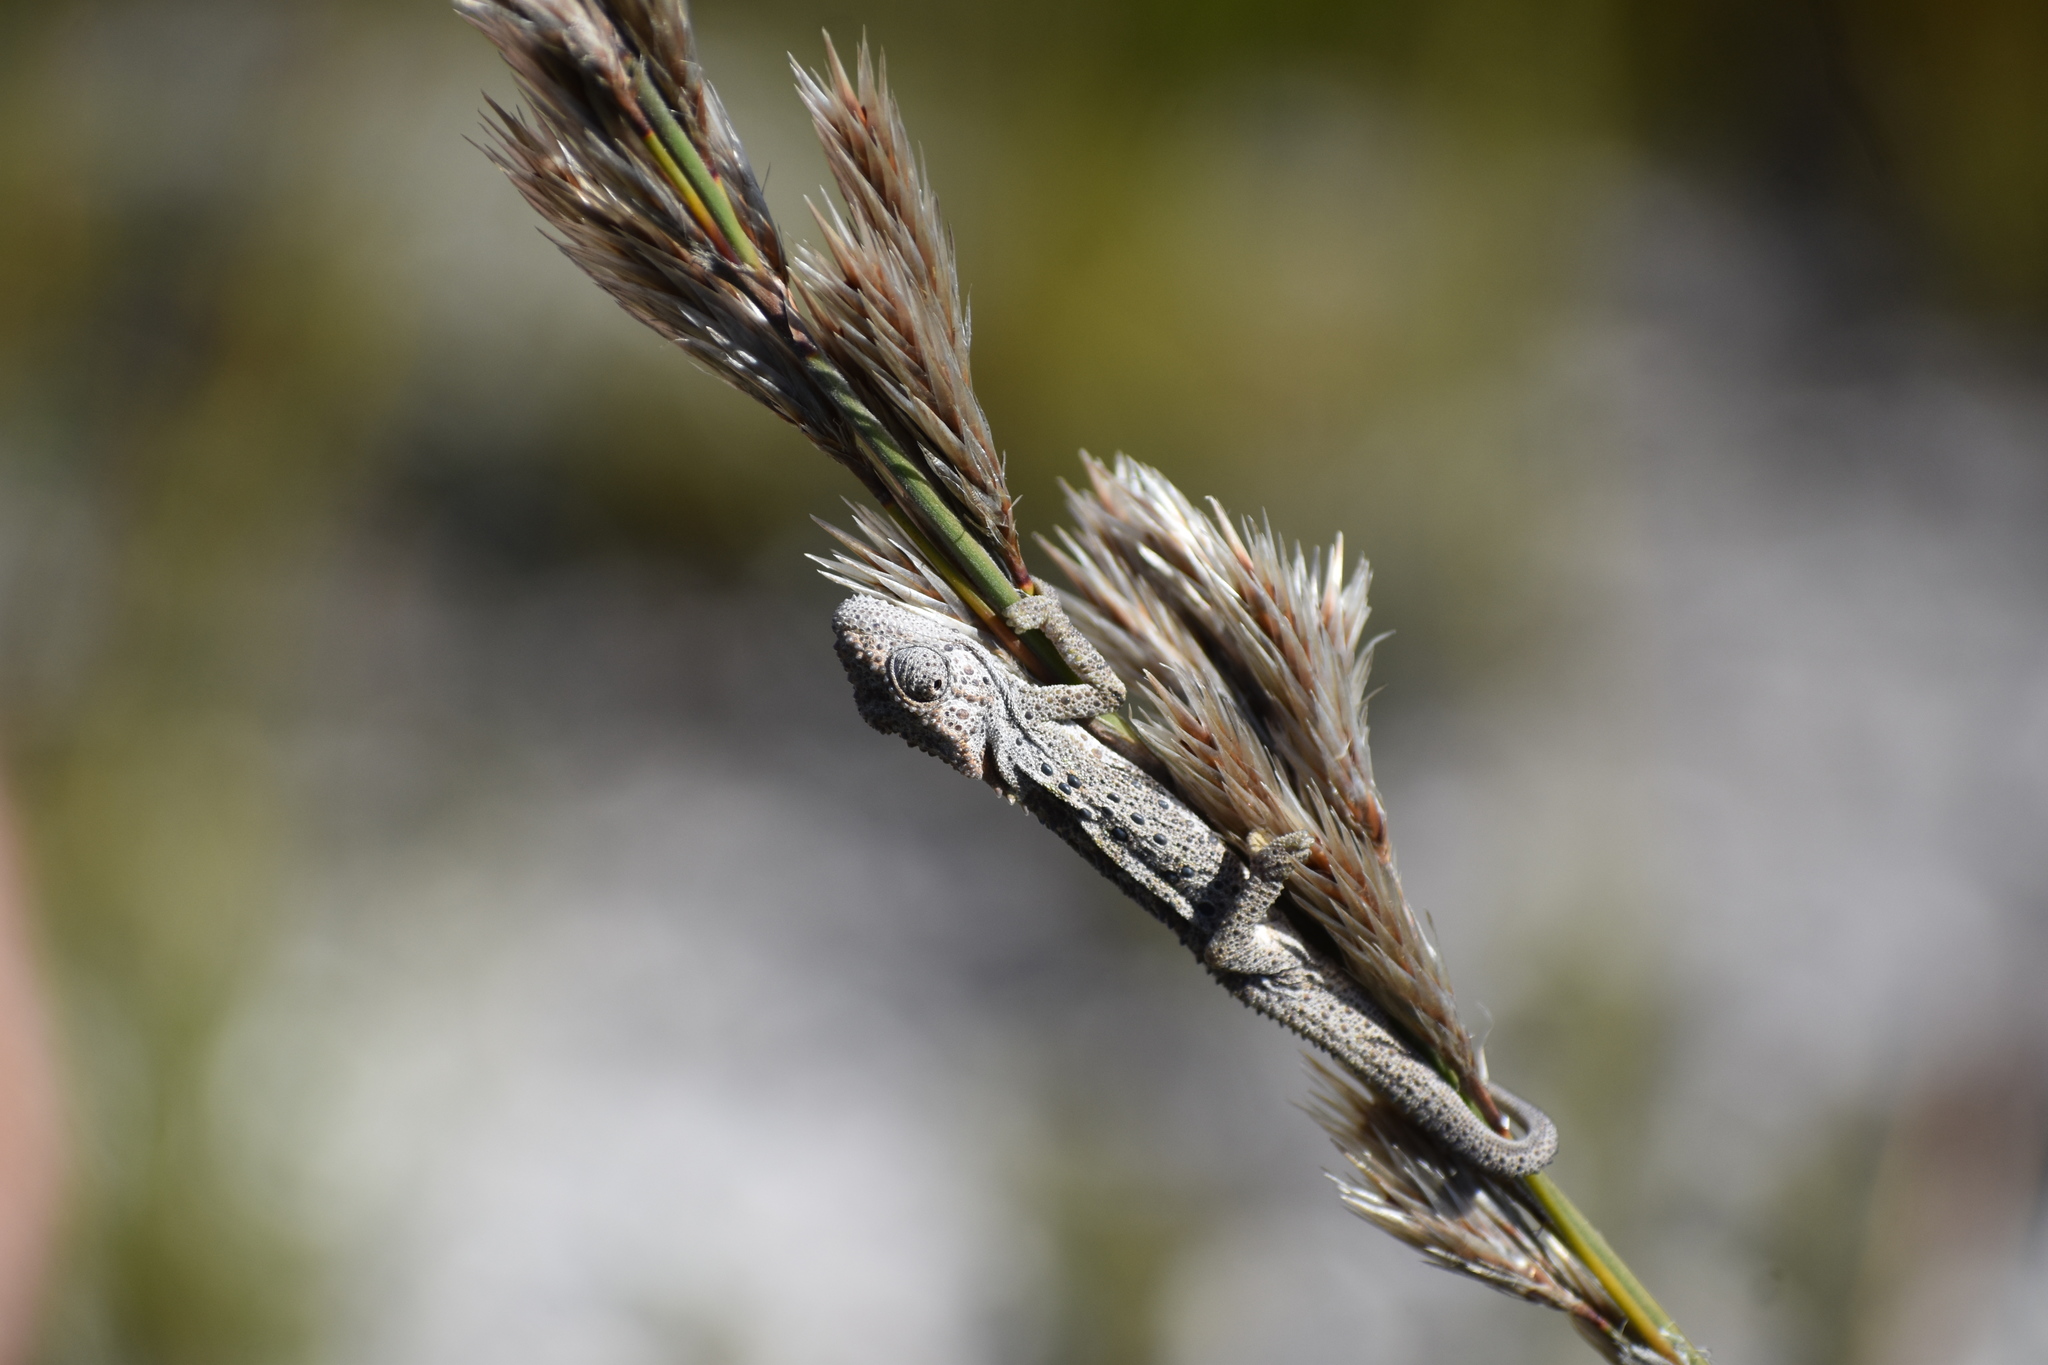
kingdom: Animalia
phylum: Chordata
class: Squamata
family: Chamaeleonidae
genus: Bradypodion
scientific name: Bradypodion gutturale
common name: Little karoo dwarf chameleon
